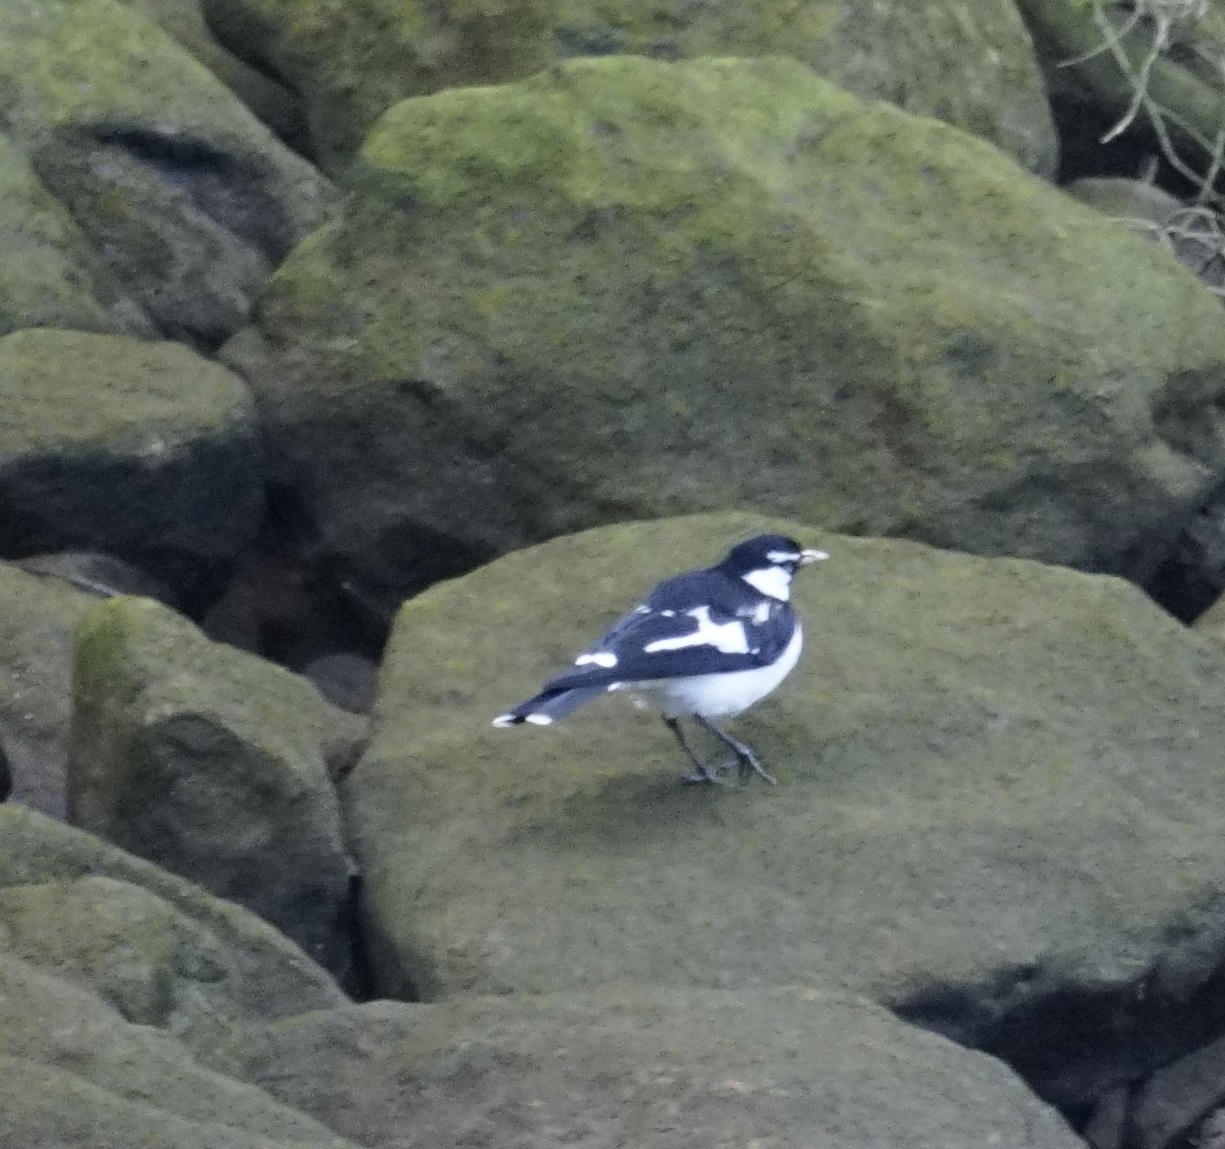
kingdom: Animalia
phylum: Chordata
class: Aves
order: Passeriformes
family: Monarchidae
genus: Grallina
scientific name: Grallina cyanoleuca
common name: Magpie-lark
